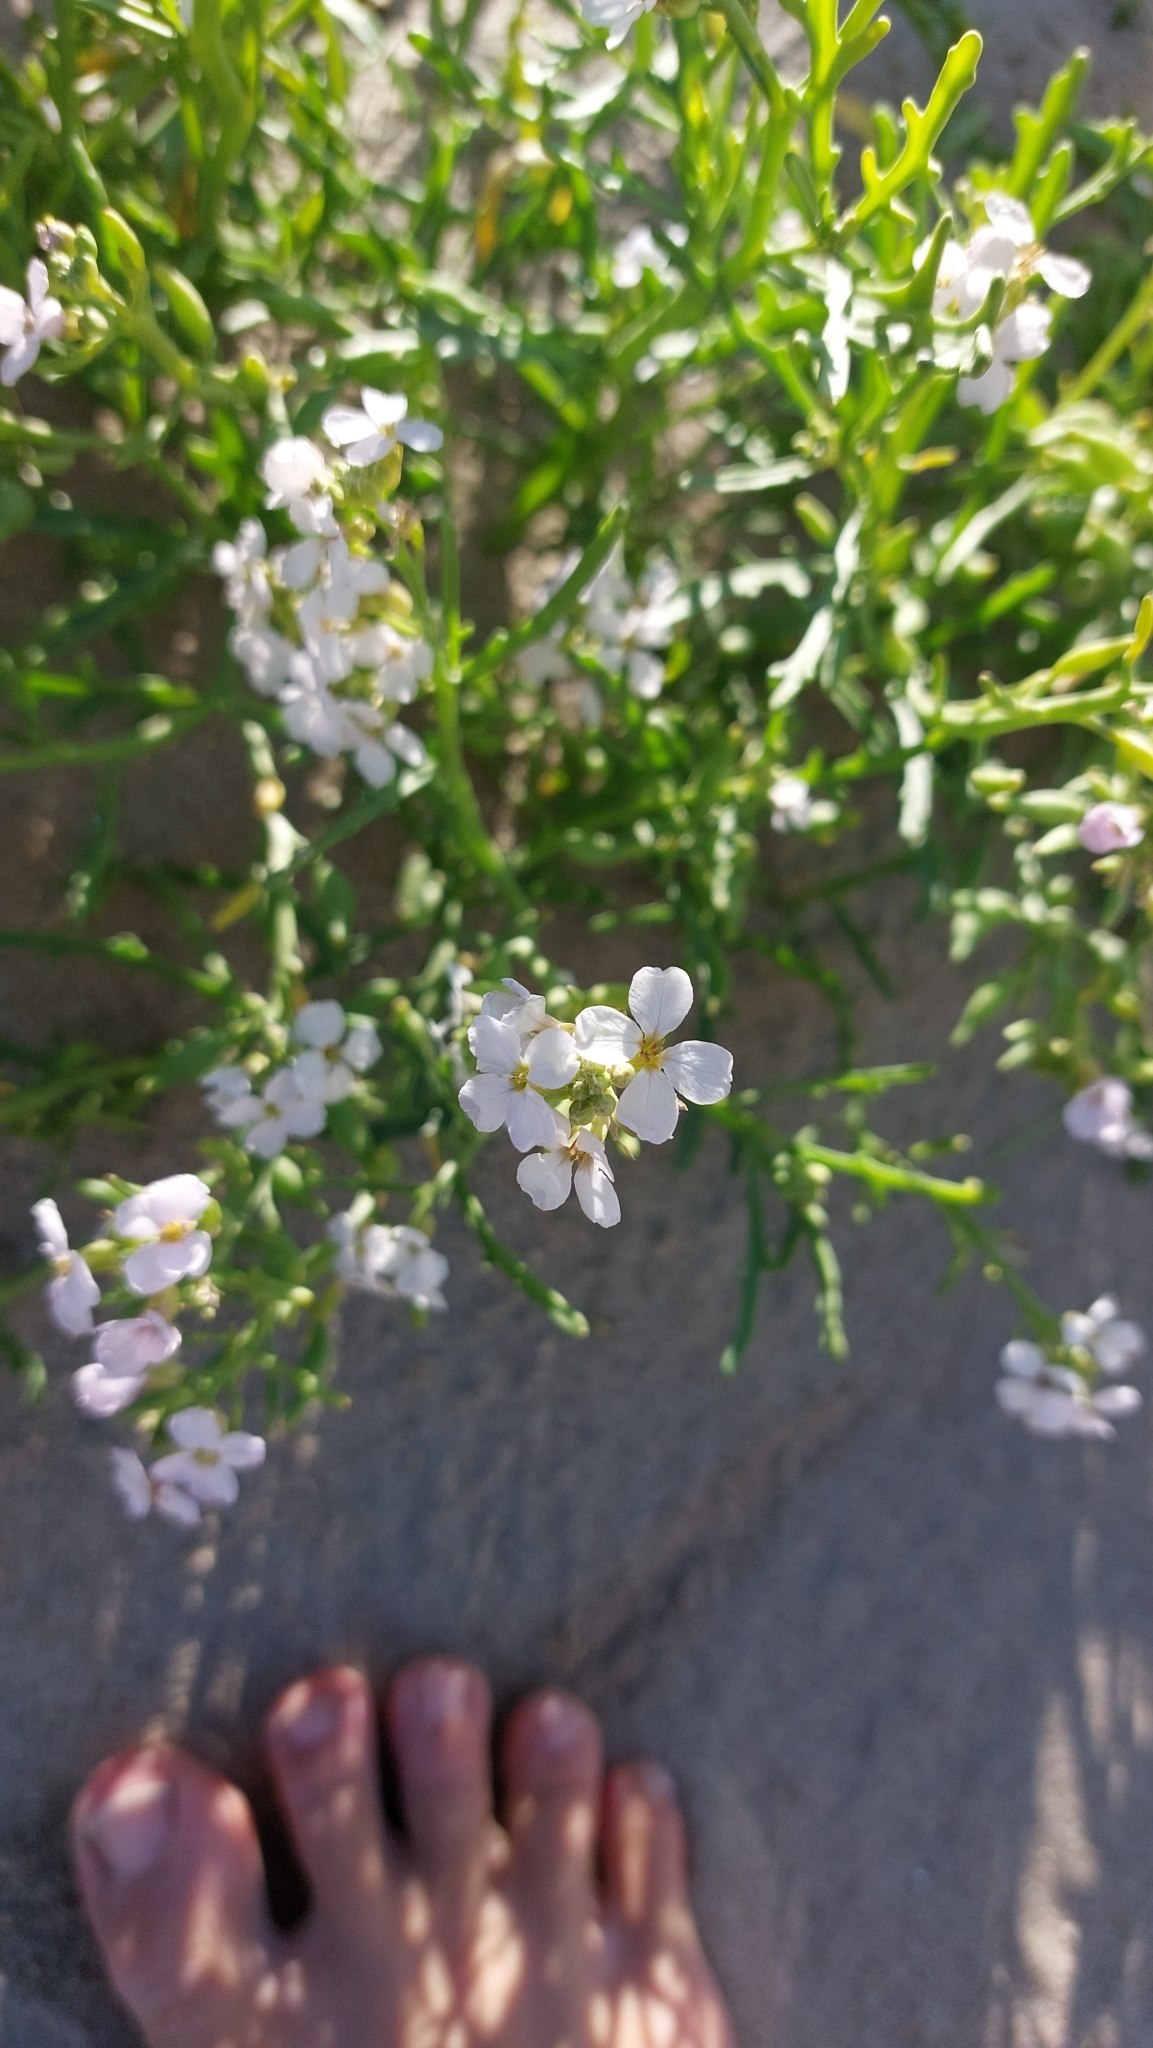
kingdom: Plantae
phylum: Tracheophyta
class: Magnoliopsida
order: Brassicales
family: Brassicaceae
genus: Cakile
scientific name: Cakile maritima
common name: Sea rocket
